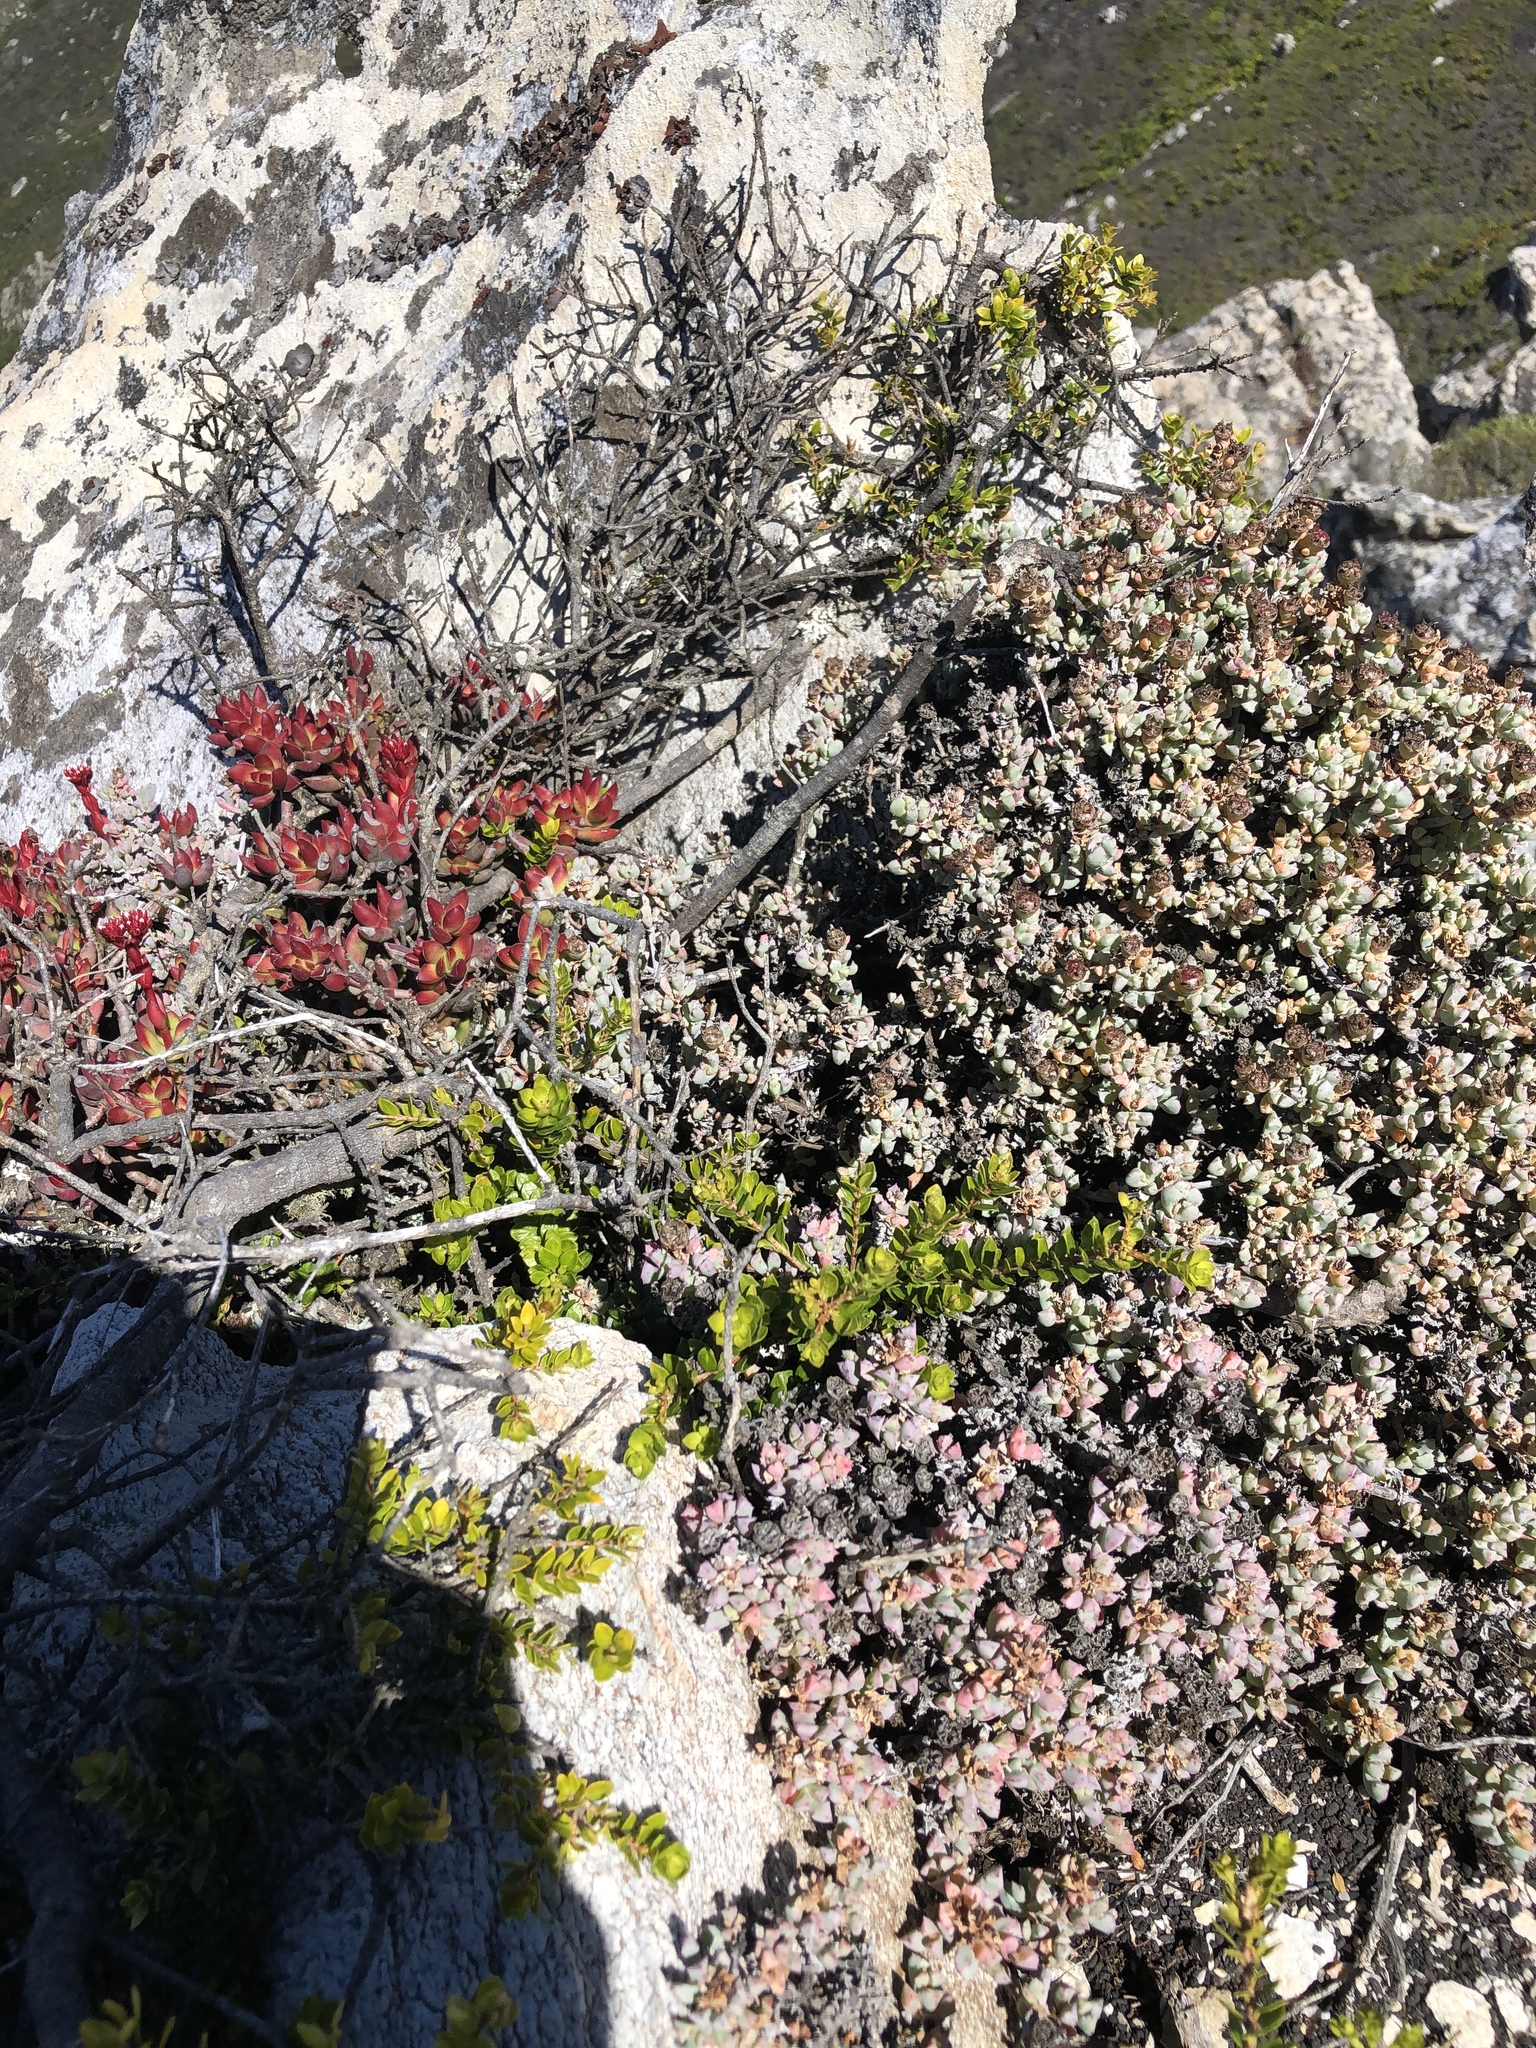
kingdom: Plantae
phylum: Tracheophyta
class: Magnoliopsida
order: Caryophyllales
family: Aizoaceae
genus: Oscularia
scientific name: Oscularia deltoides
